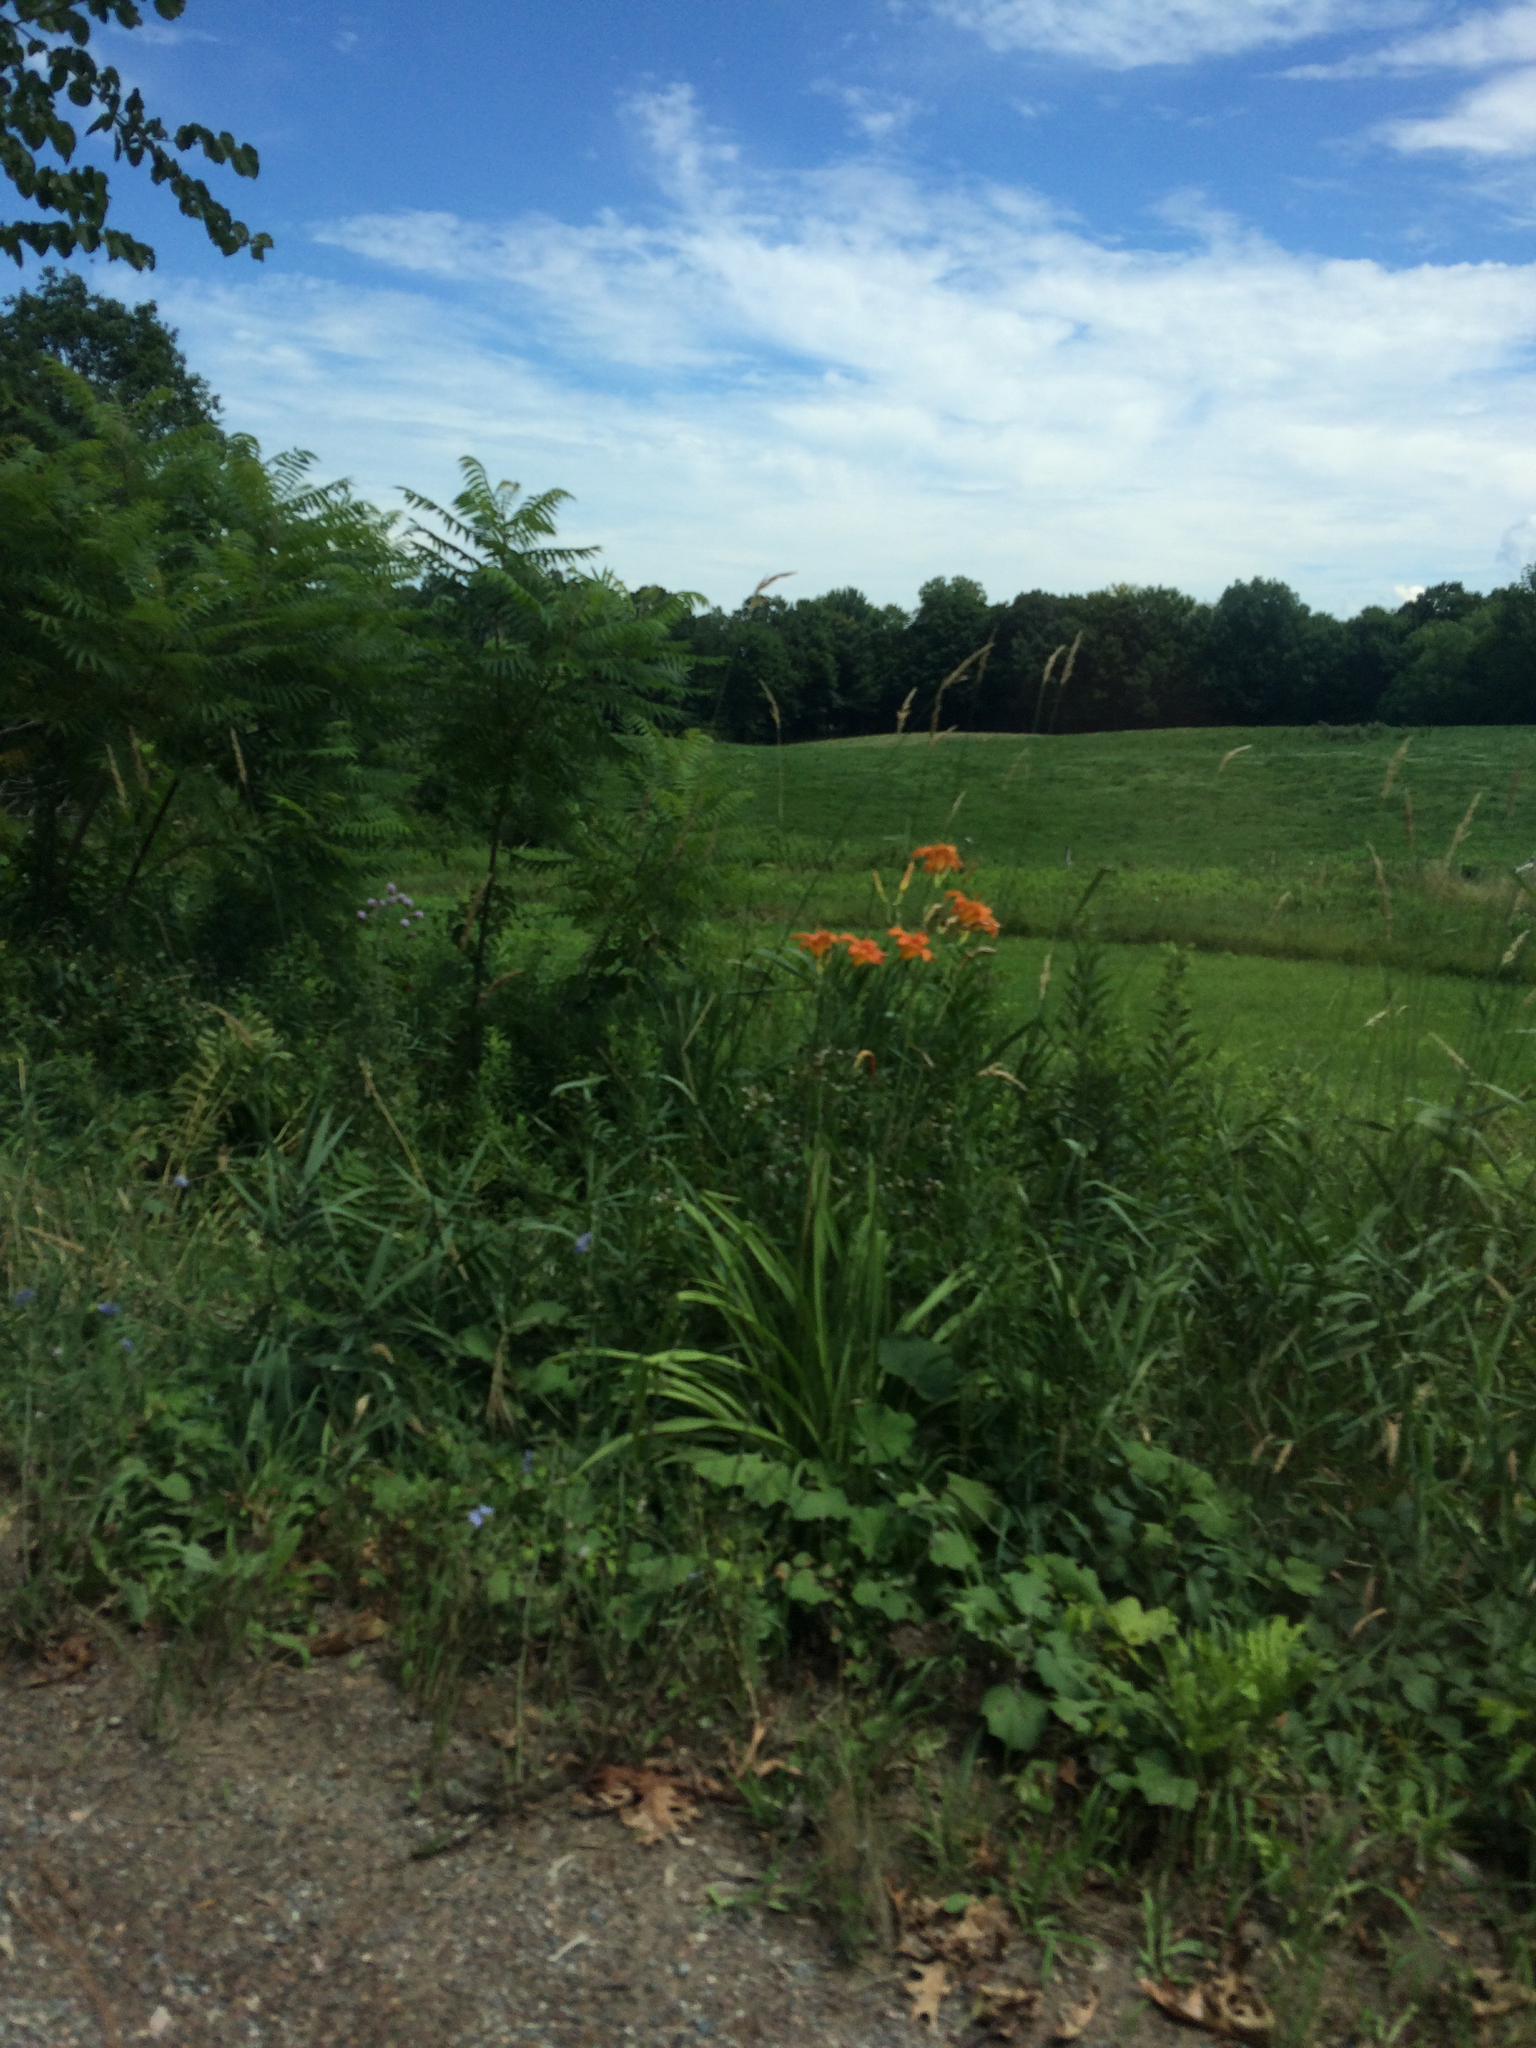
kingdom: Plantae
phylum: Tracheophyta
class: Liliopsida
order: Asparagales
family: Asphodelaceae
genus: Hemerocallis
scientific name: Hemerocallis fulva
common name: Orange day-lily
